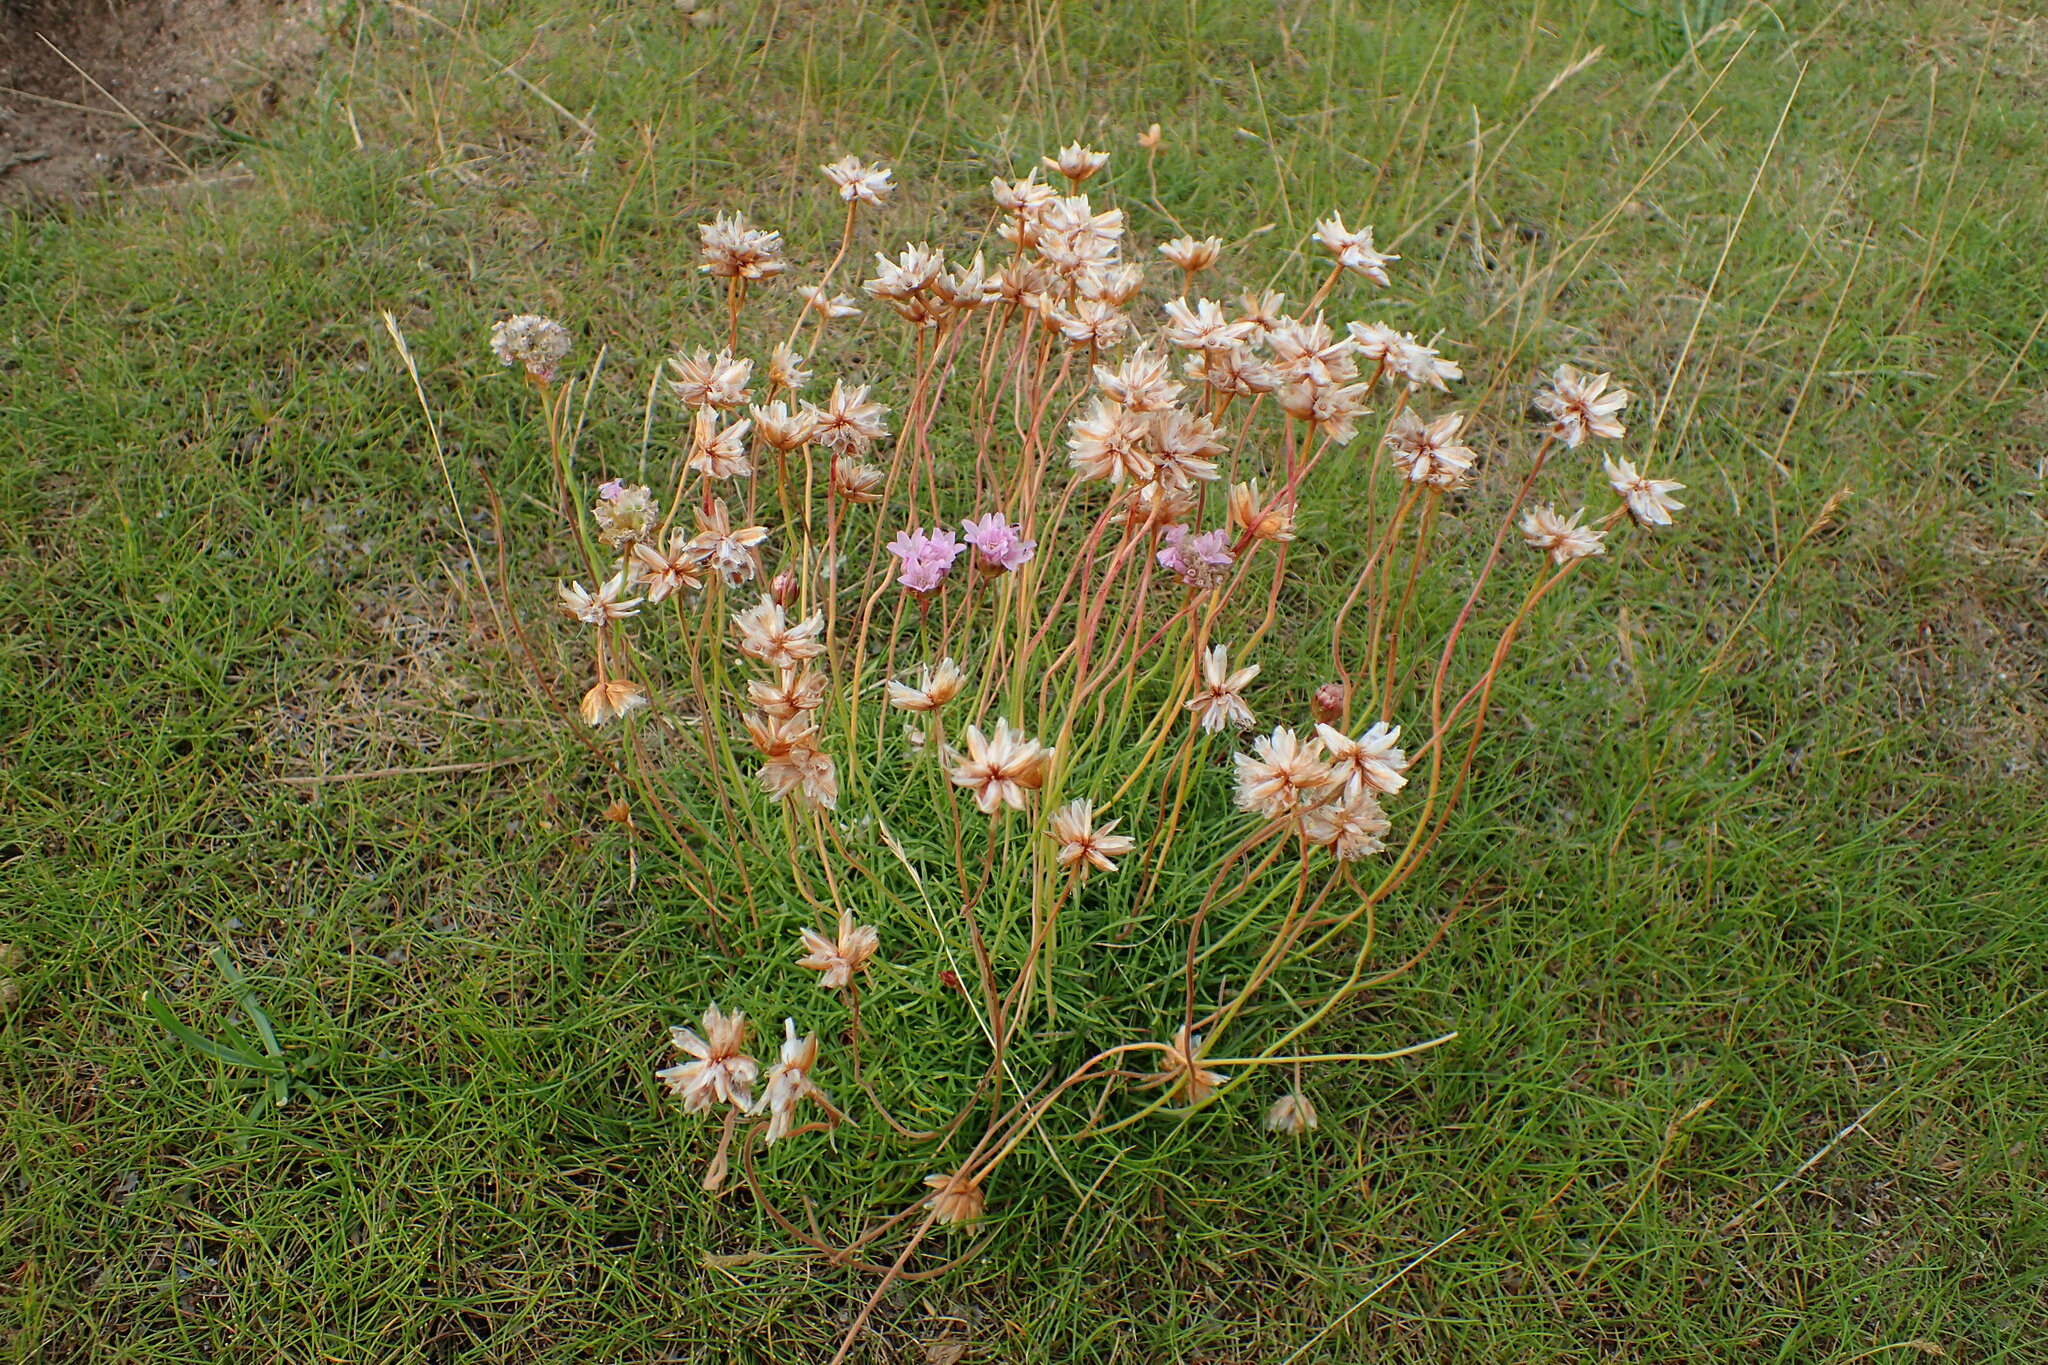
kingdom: Plantae
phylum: Tracheophyta
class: Magnoliopsida
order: Caryophyllales
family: Plumbaginaceae
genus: Armeria
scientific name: Armeria maritima
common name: Thrift
